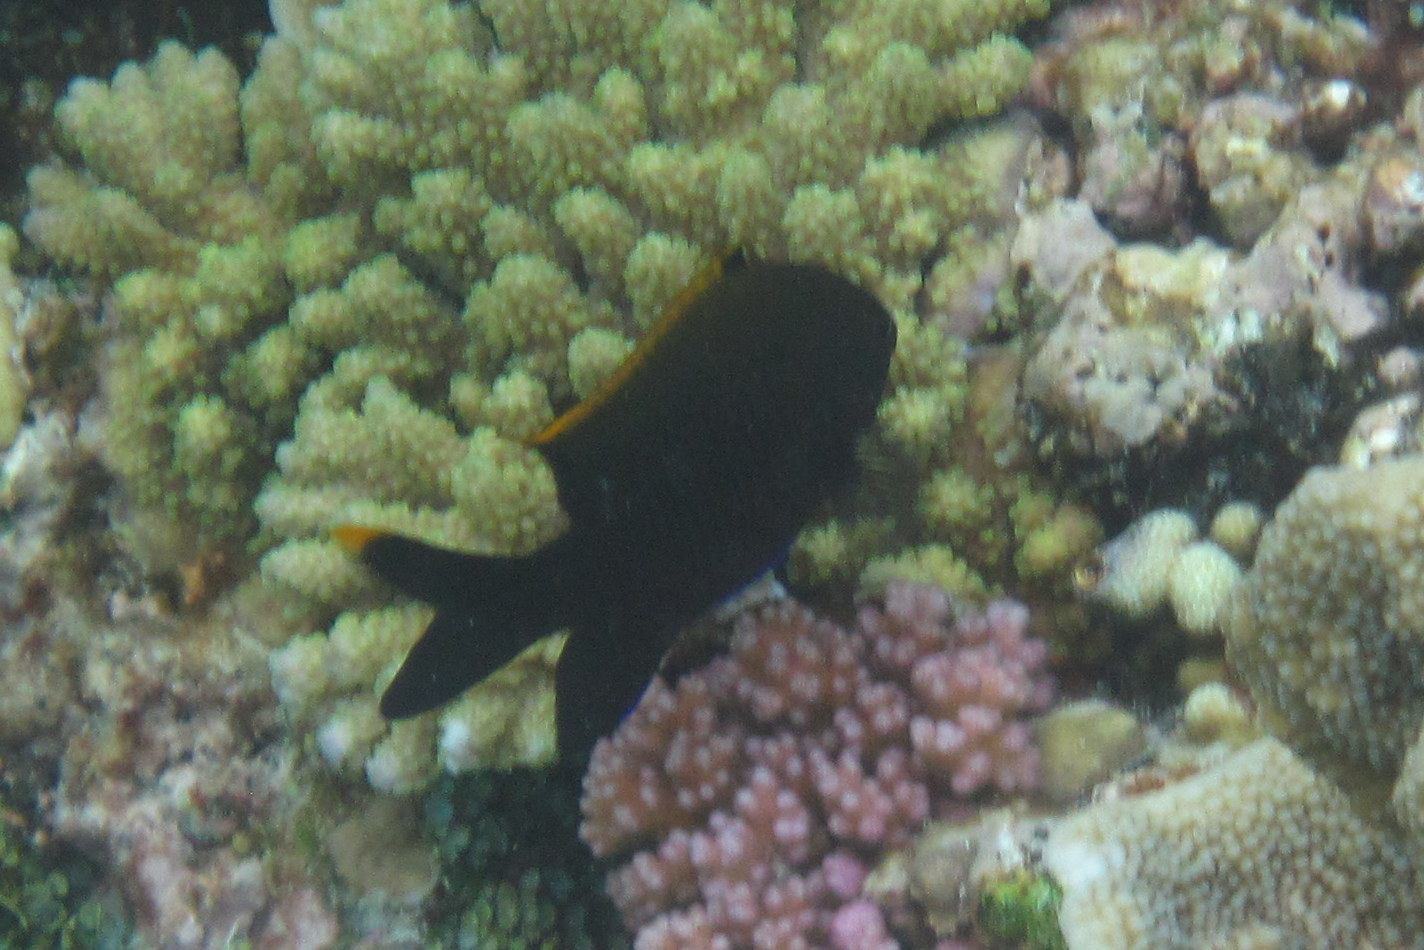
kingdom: Animalia
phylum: Chordata
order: Perciformes
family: Pomacentridae
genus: Stegastes
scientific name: Stegastes apicalis
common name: Australian gregory
